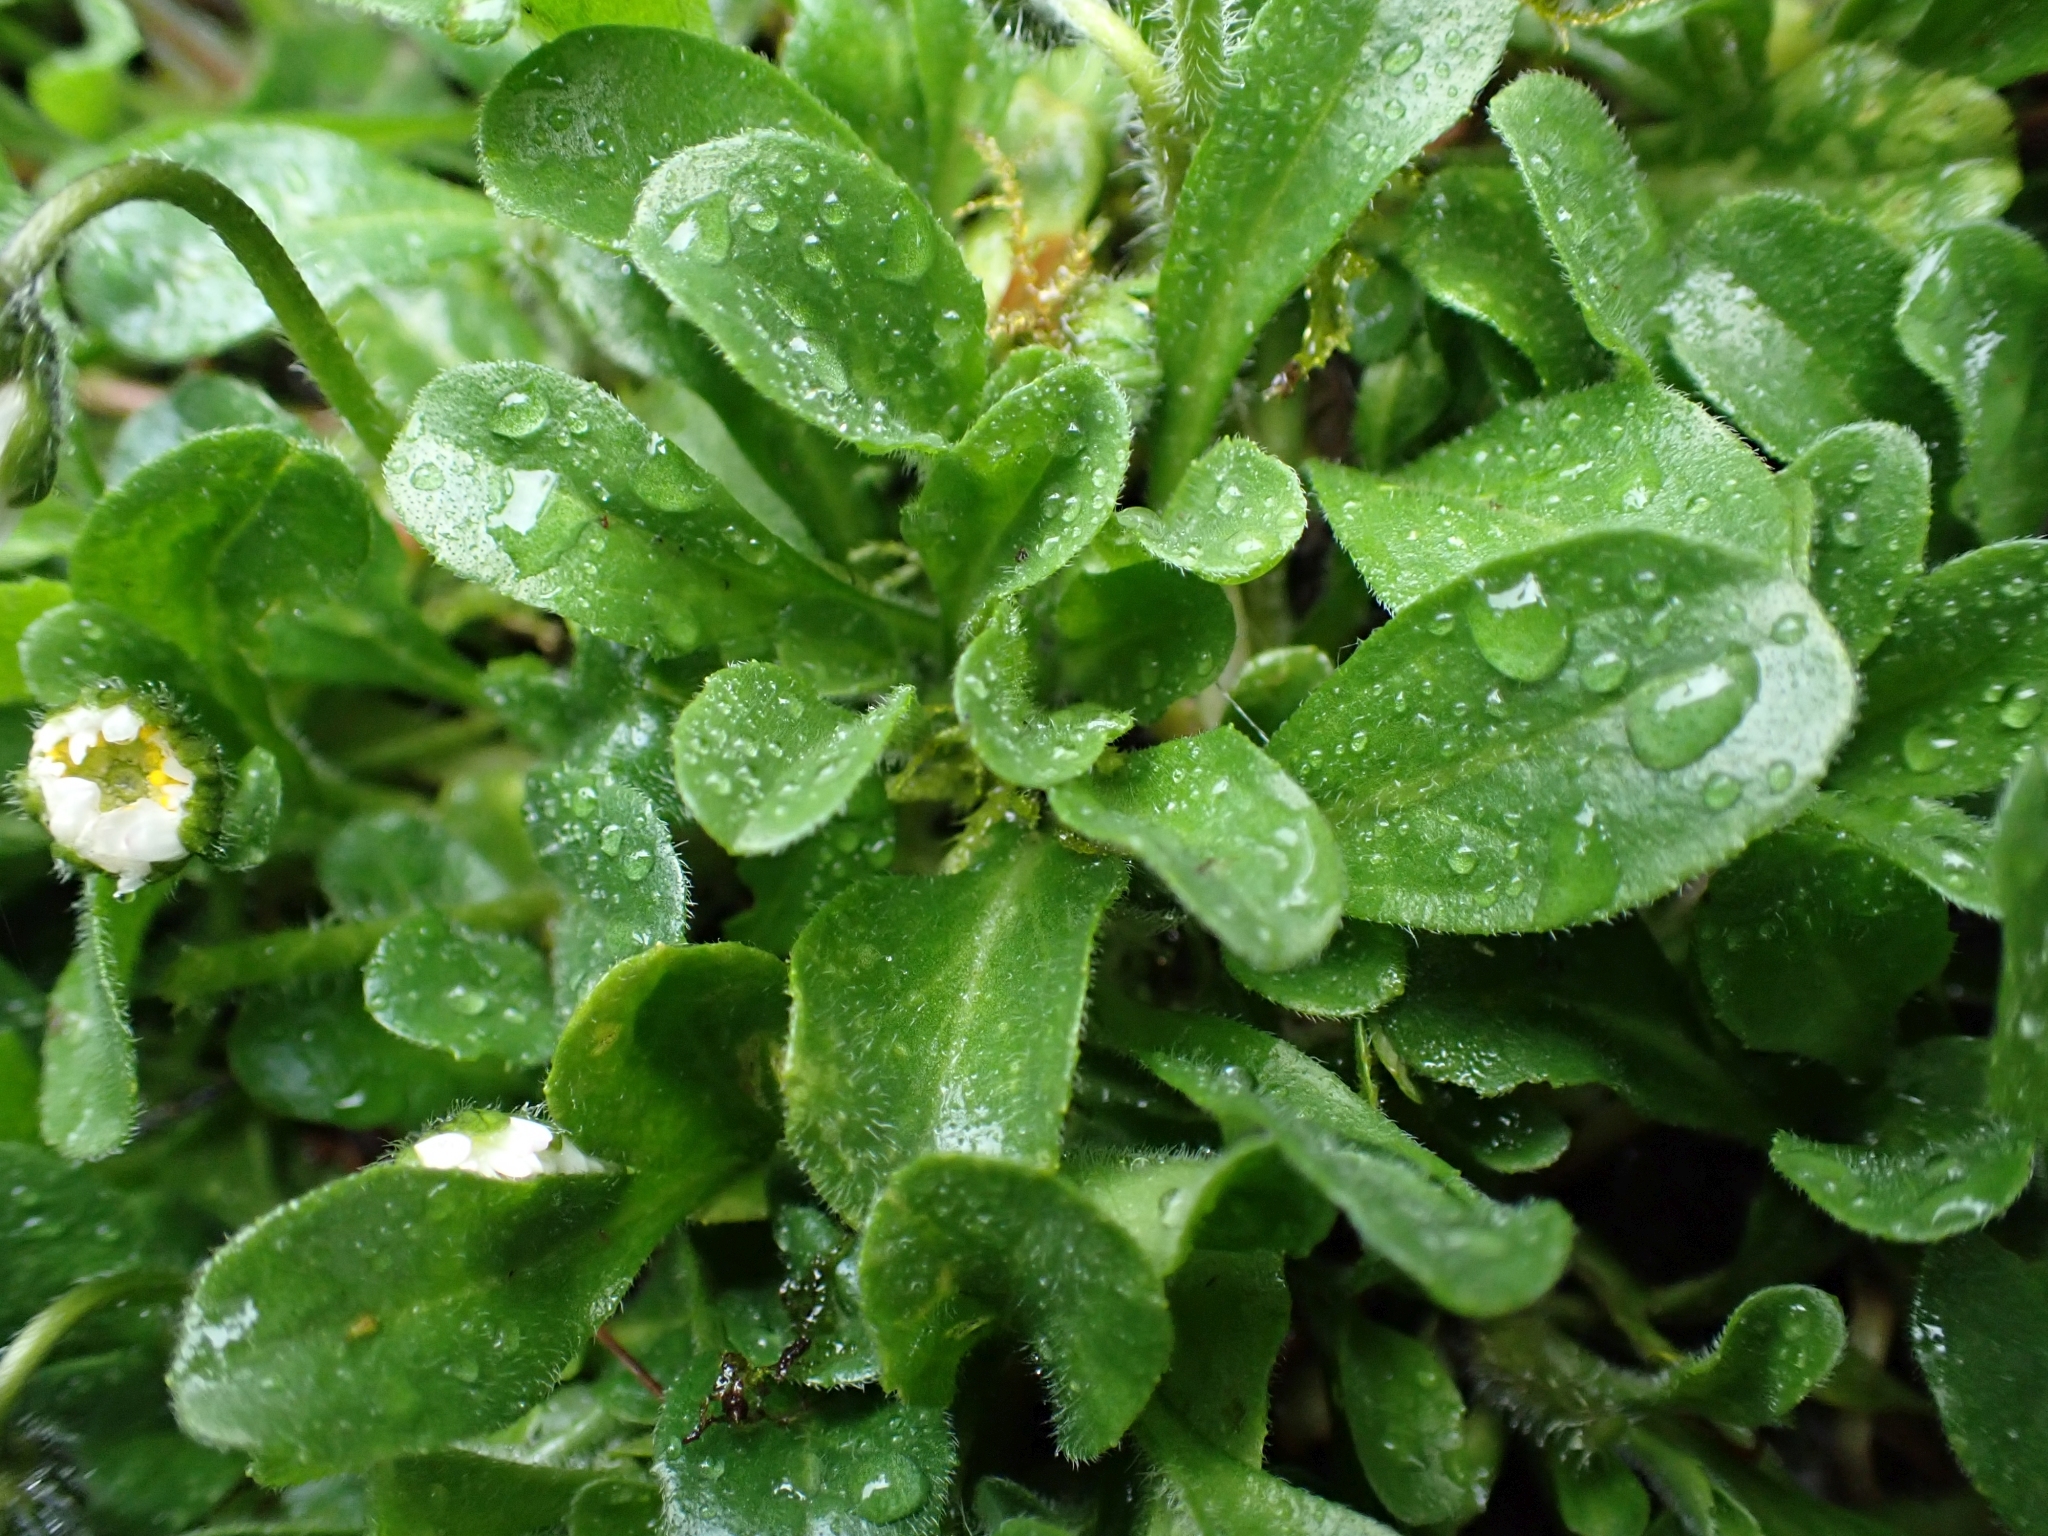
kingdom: Plantae
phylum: Tracheophyta
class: Magnoliopsida
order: Asterales
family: Asteraceae
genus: Bellis
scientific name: Bellis perennis
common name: Lawndaisy
